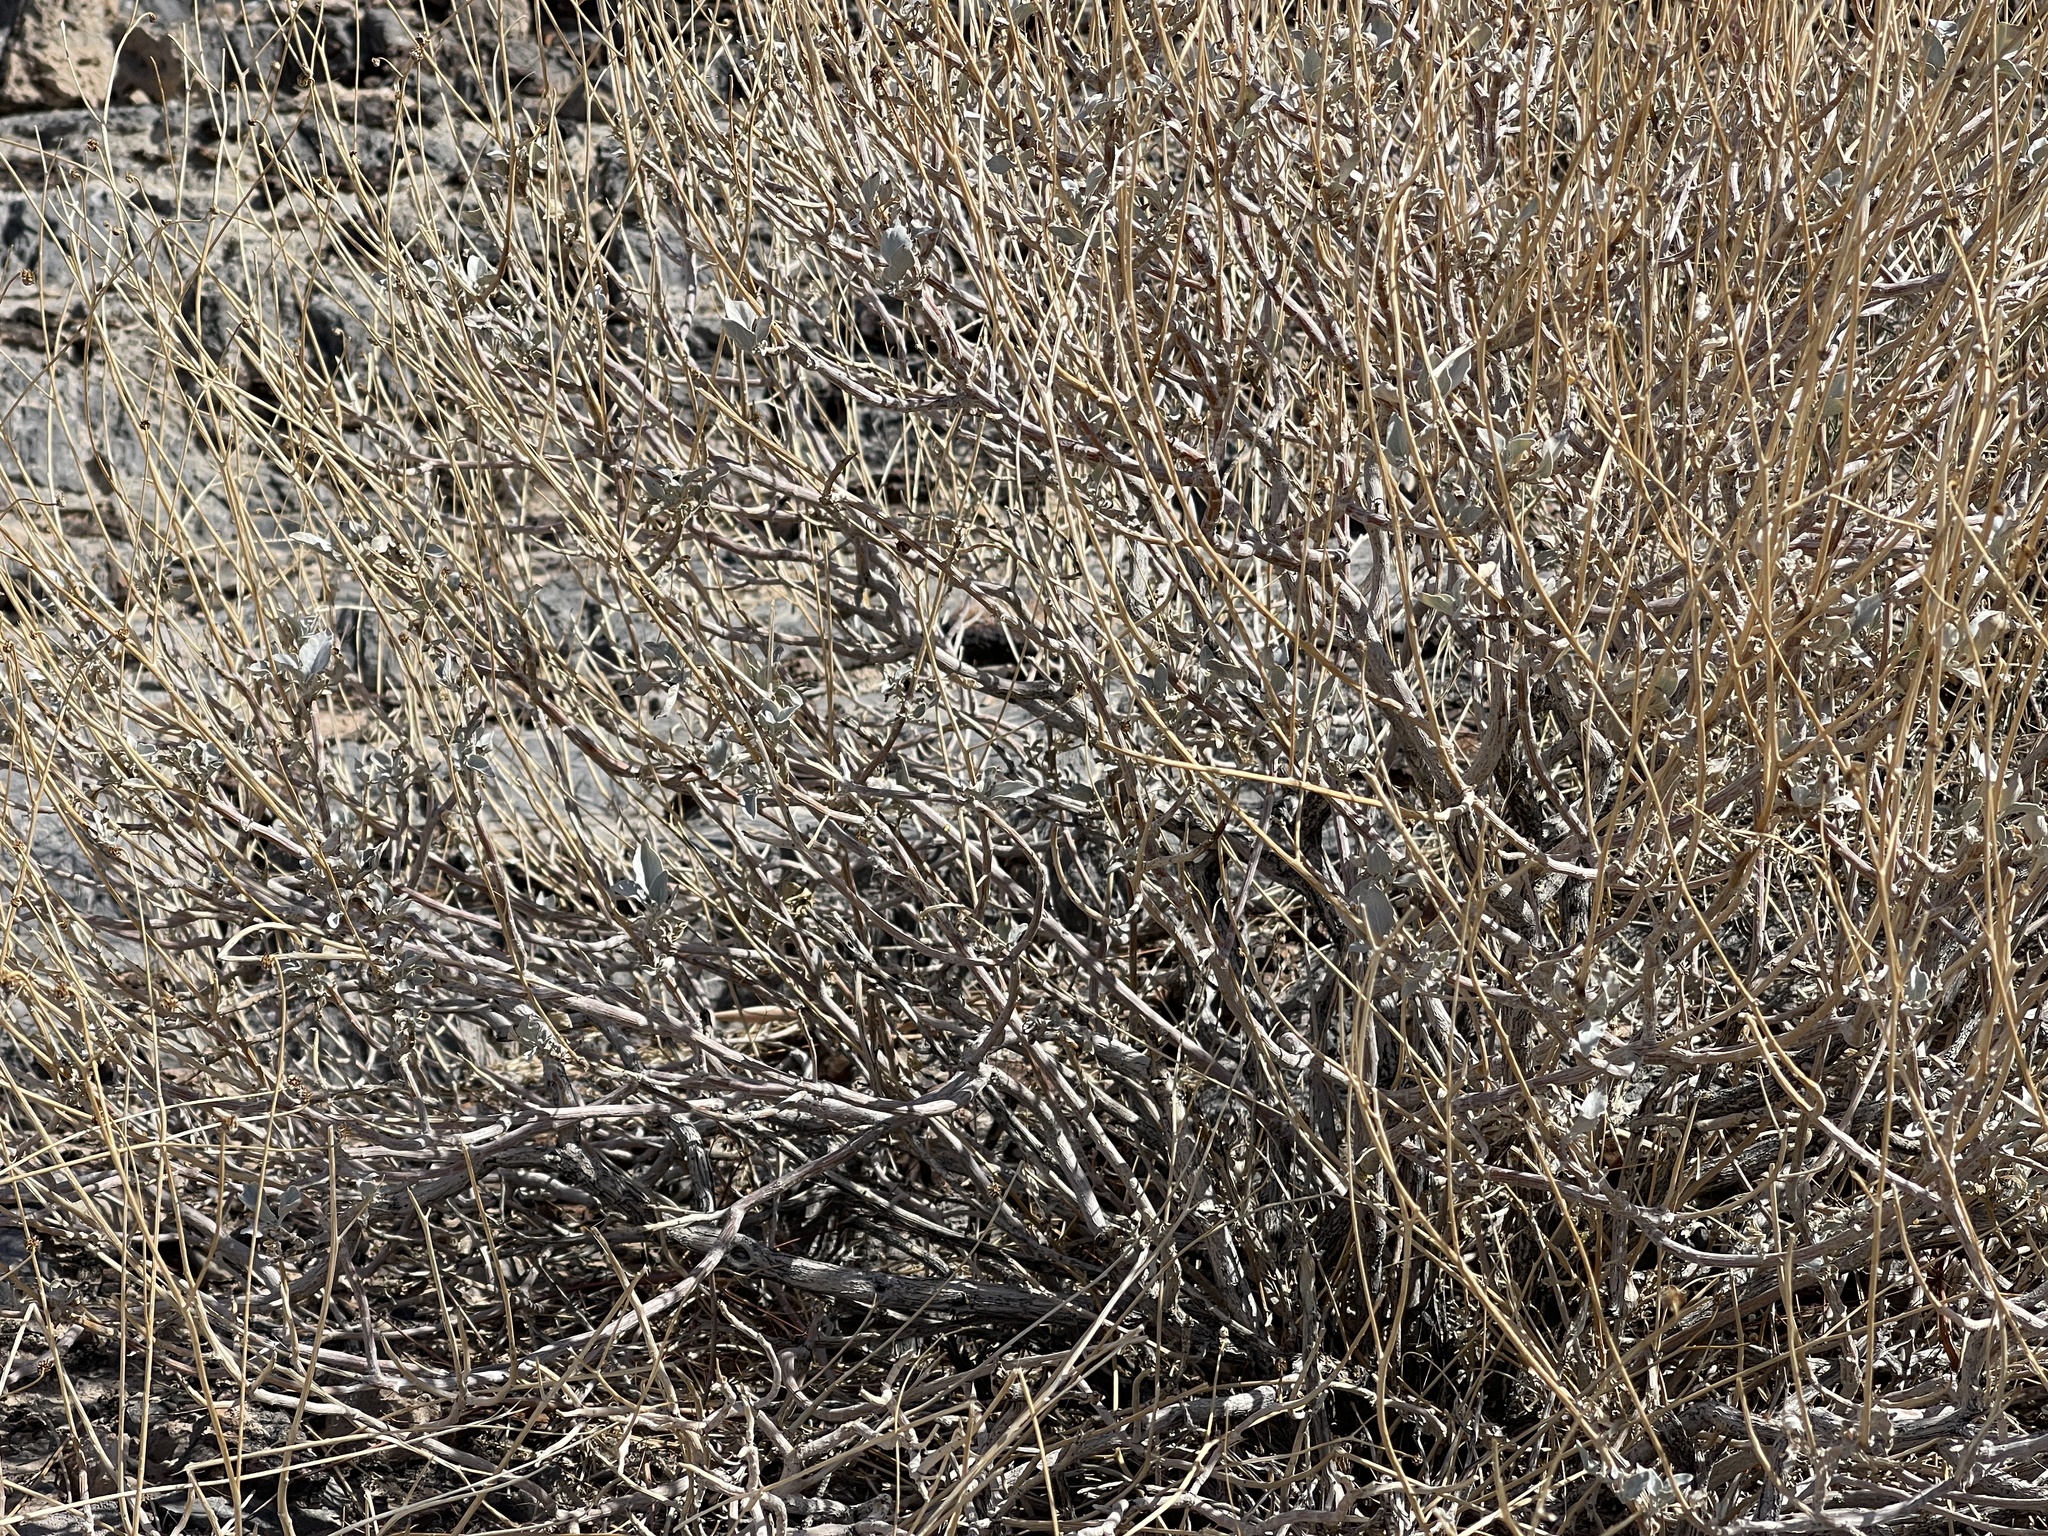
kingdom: Plantae
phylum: Tracheophyta
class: Magnoliopsida
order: Asterales
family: Asteraceae
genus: Encelia
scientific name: Encelia farinosa
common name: Brittlebush
